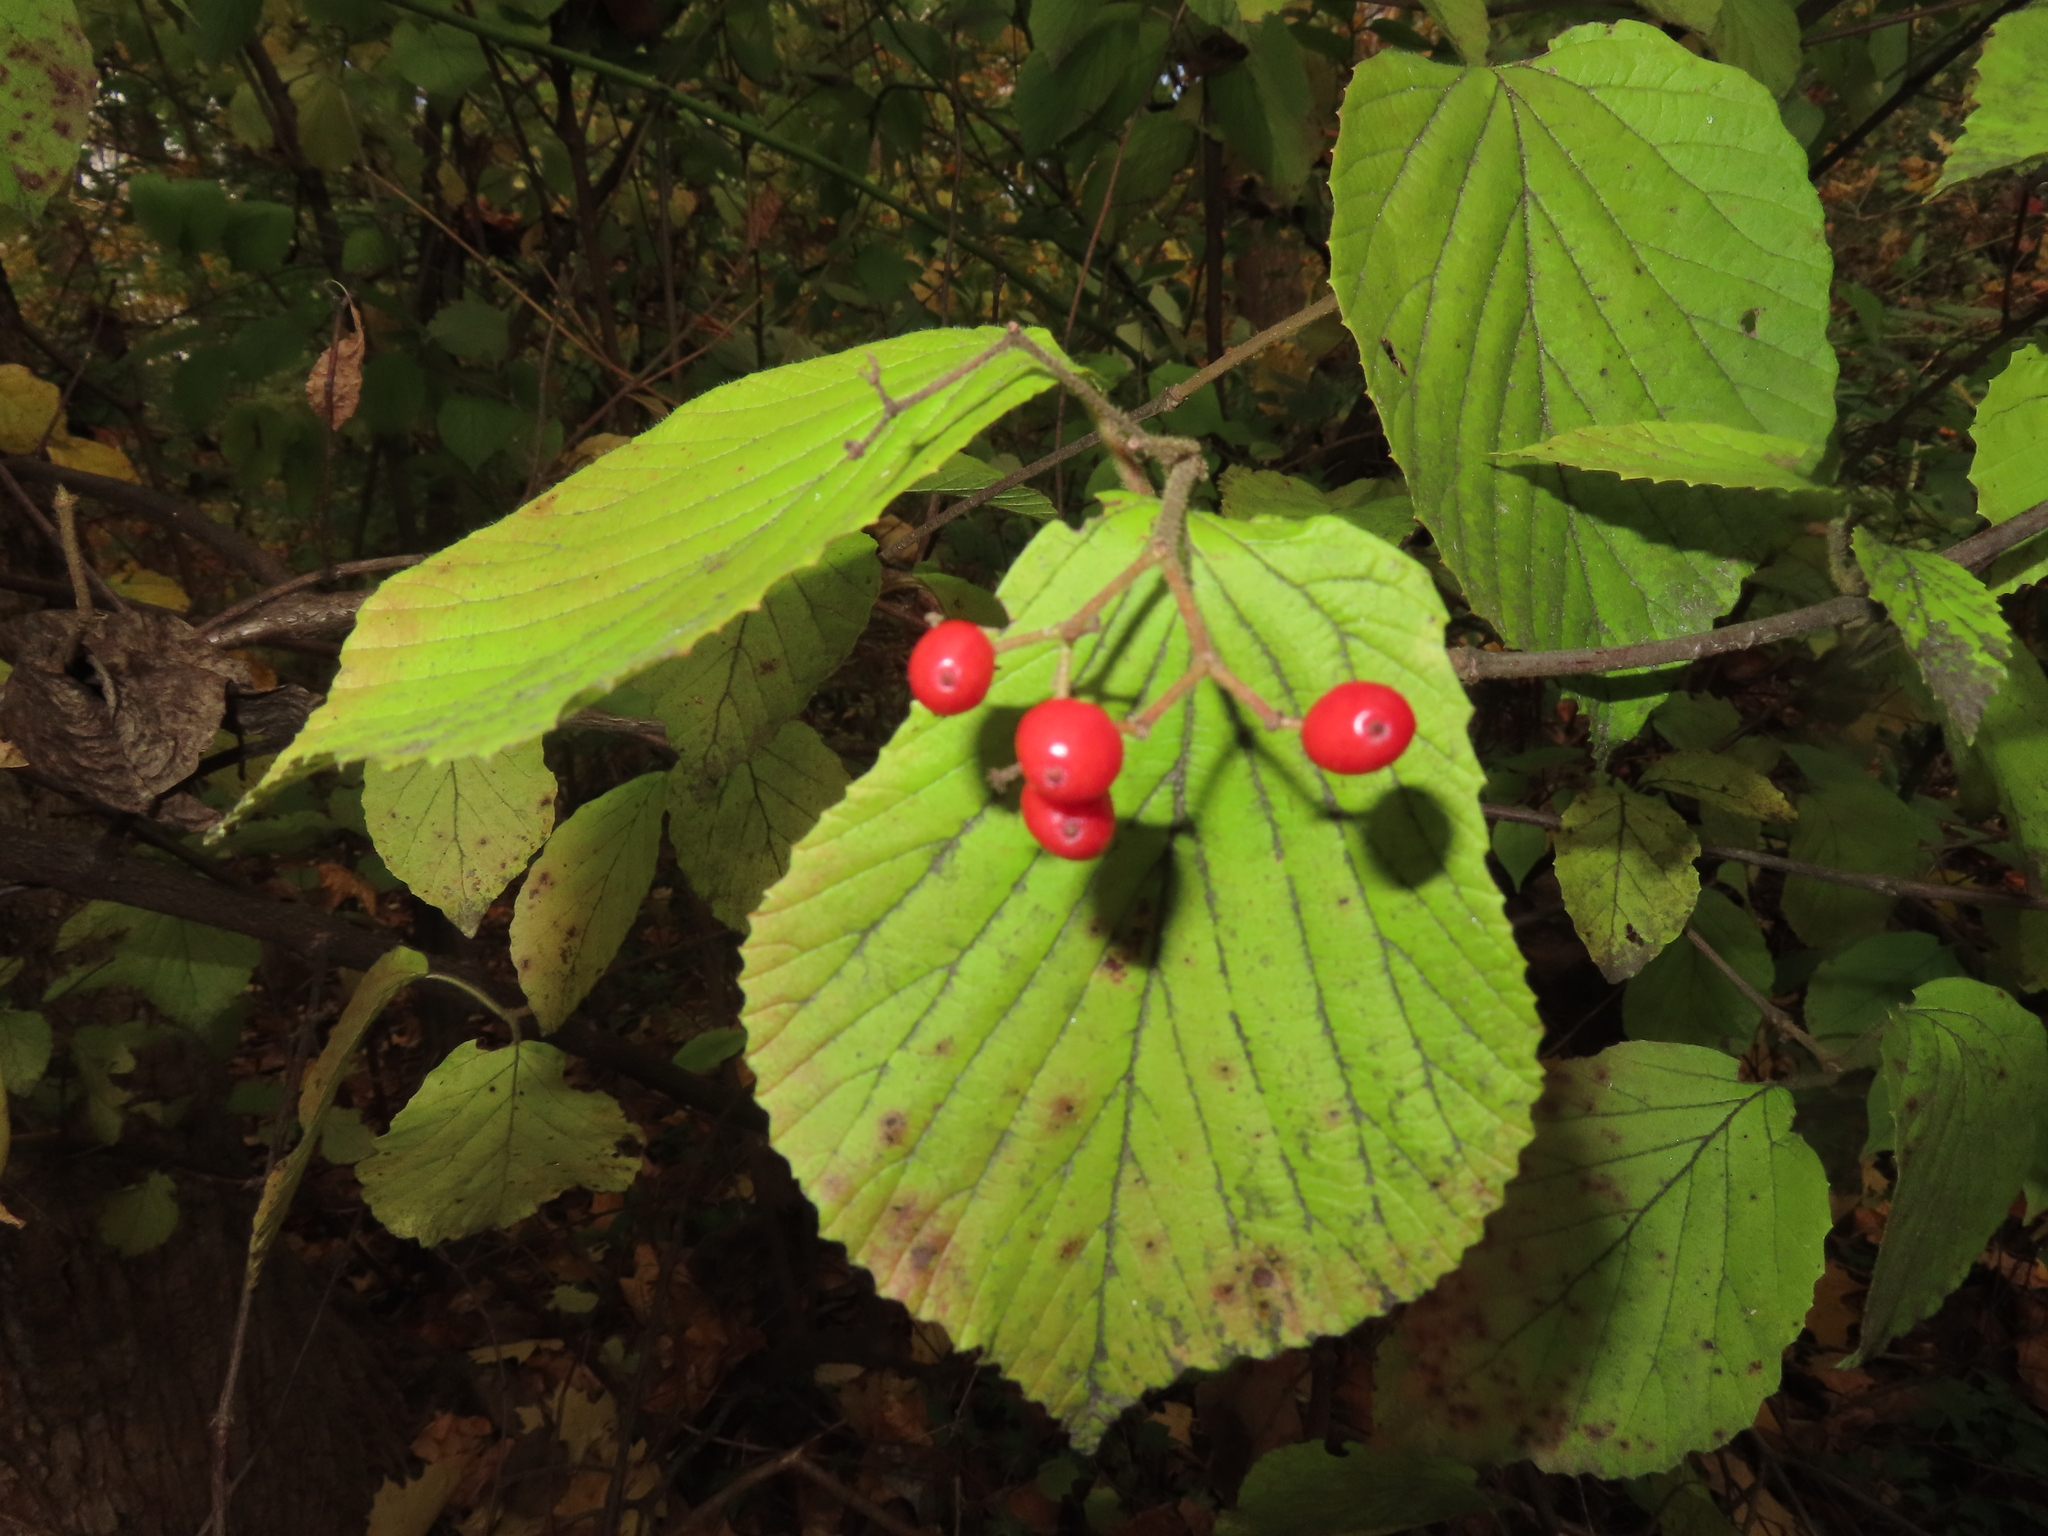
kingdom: Plantae
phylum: Tracheophyta
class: Magnoliopsida
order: Dipsacales
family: Viburnaceae
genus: Viburnum
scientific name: Viburnum dilatatum
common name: Linden arrowwood
